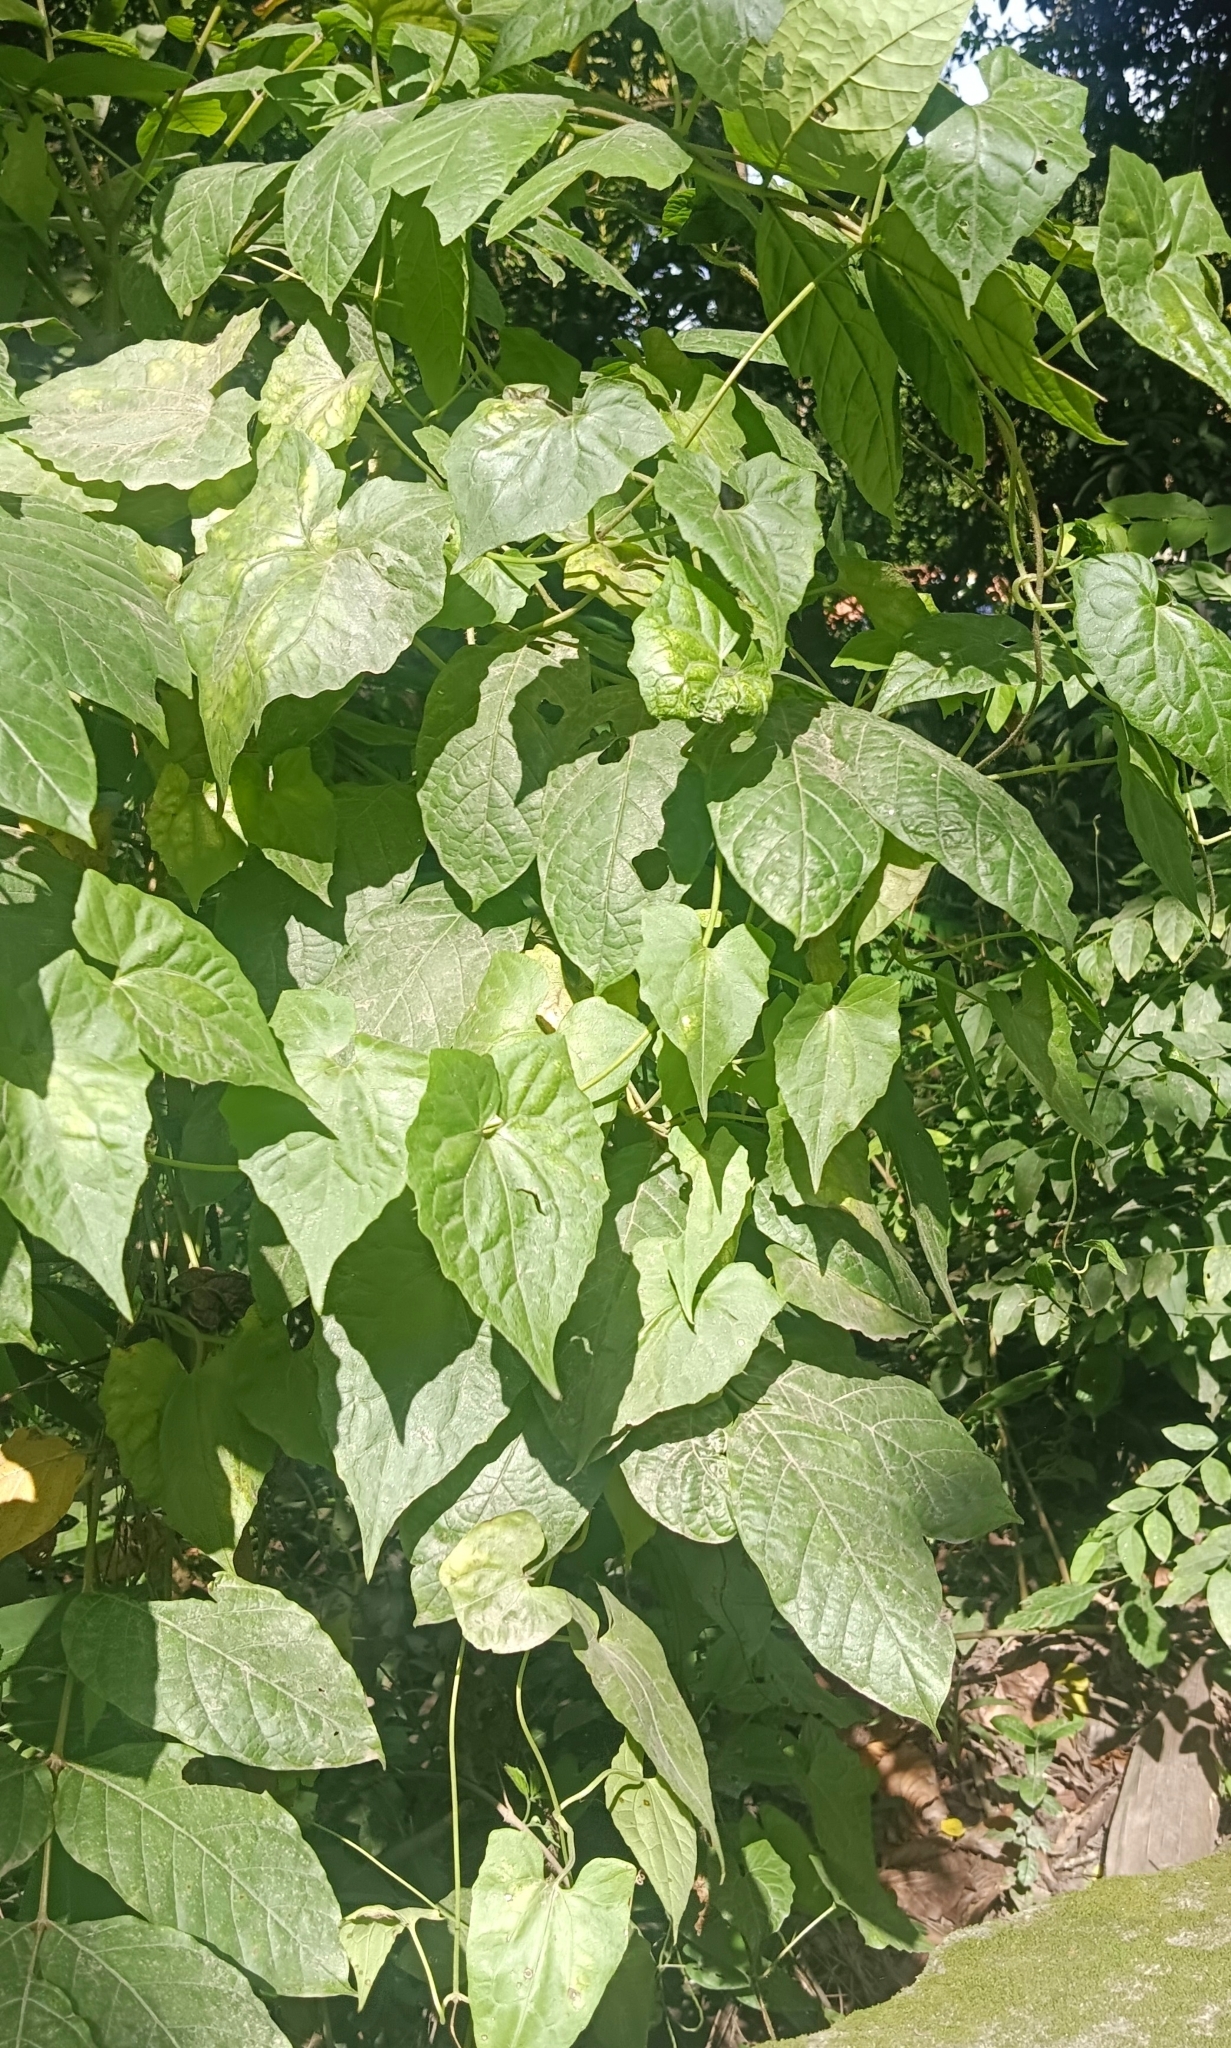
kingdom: Plantae
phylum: Tracheophyta
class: Magnoliopsida
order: Asterales
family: Asteraceae
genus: Mikania
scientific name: Mikania micrantha
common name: Mile-a-minute
